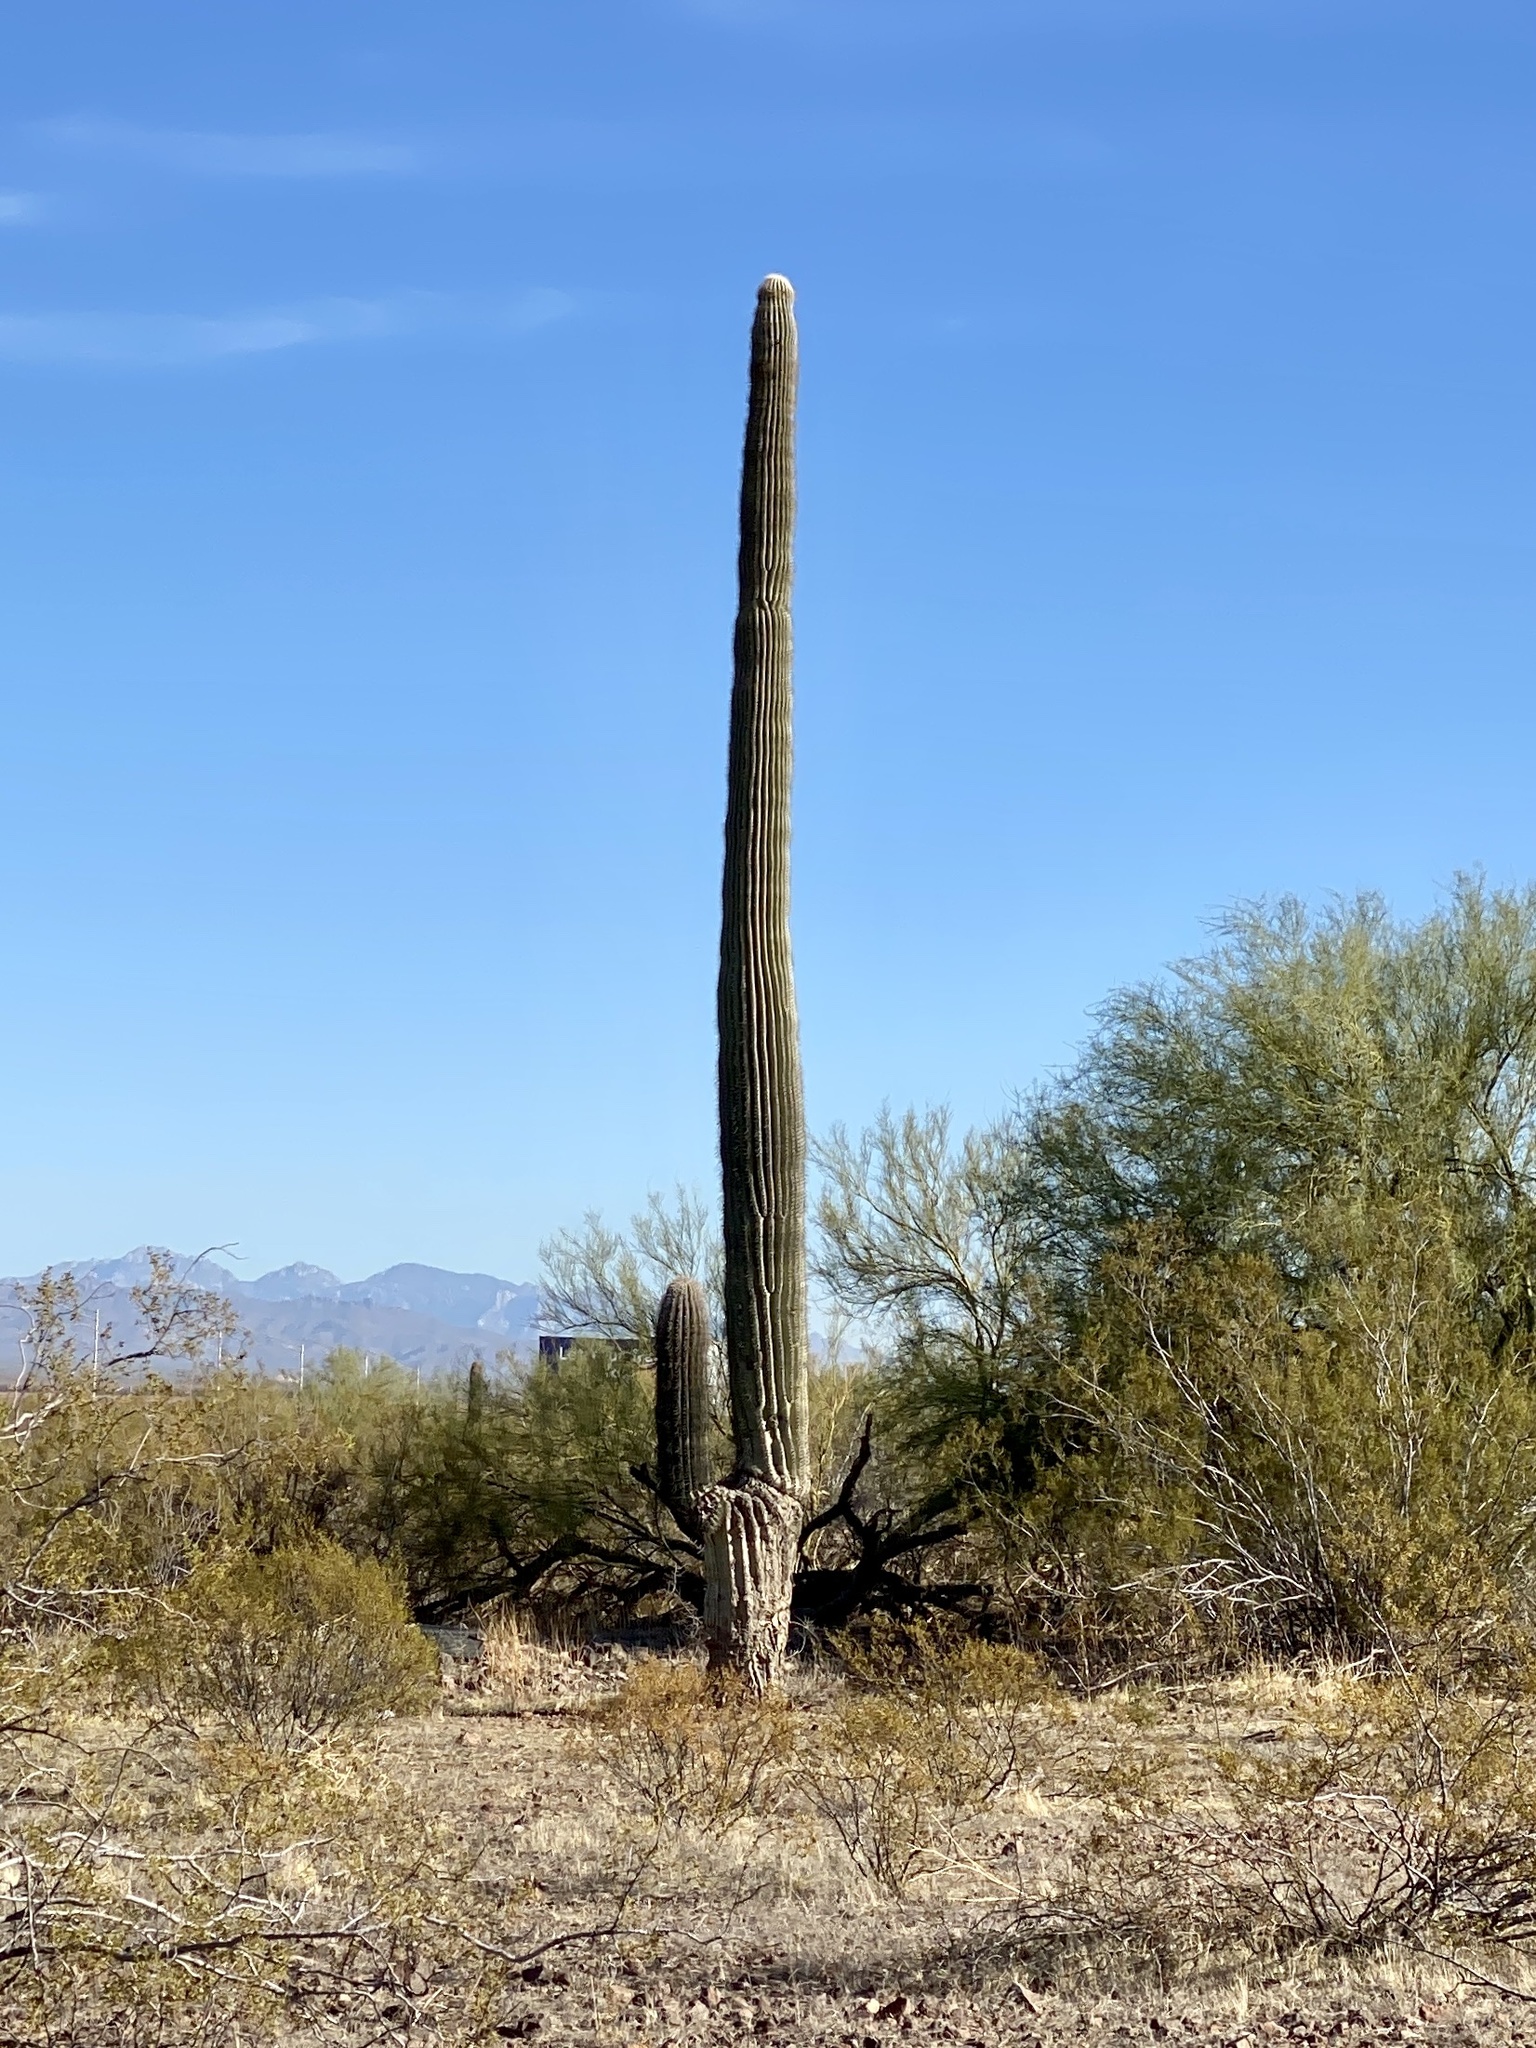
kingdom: Plantae
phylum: Tracheophyta
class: Magnoliopsida
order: Caryophyllales
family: Cactaceae
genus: Carnegiea
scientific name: Carnegiea gigantea
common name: Saguaro
